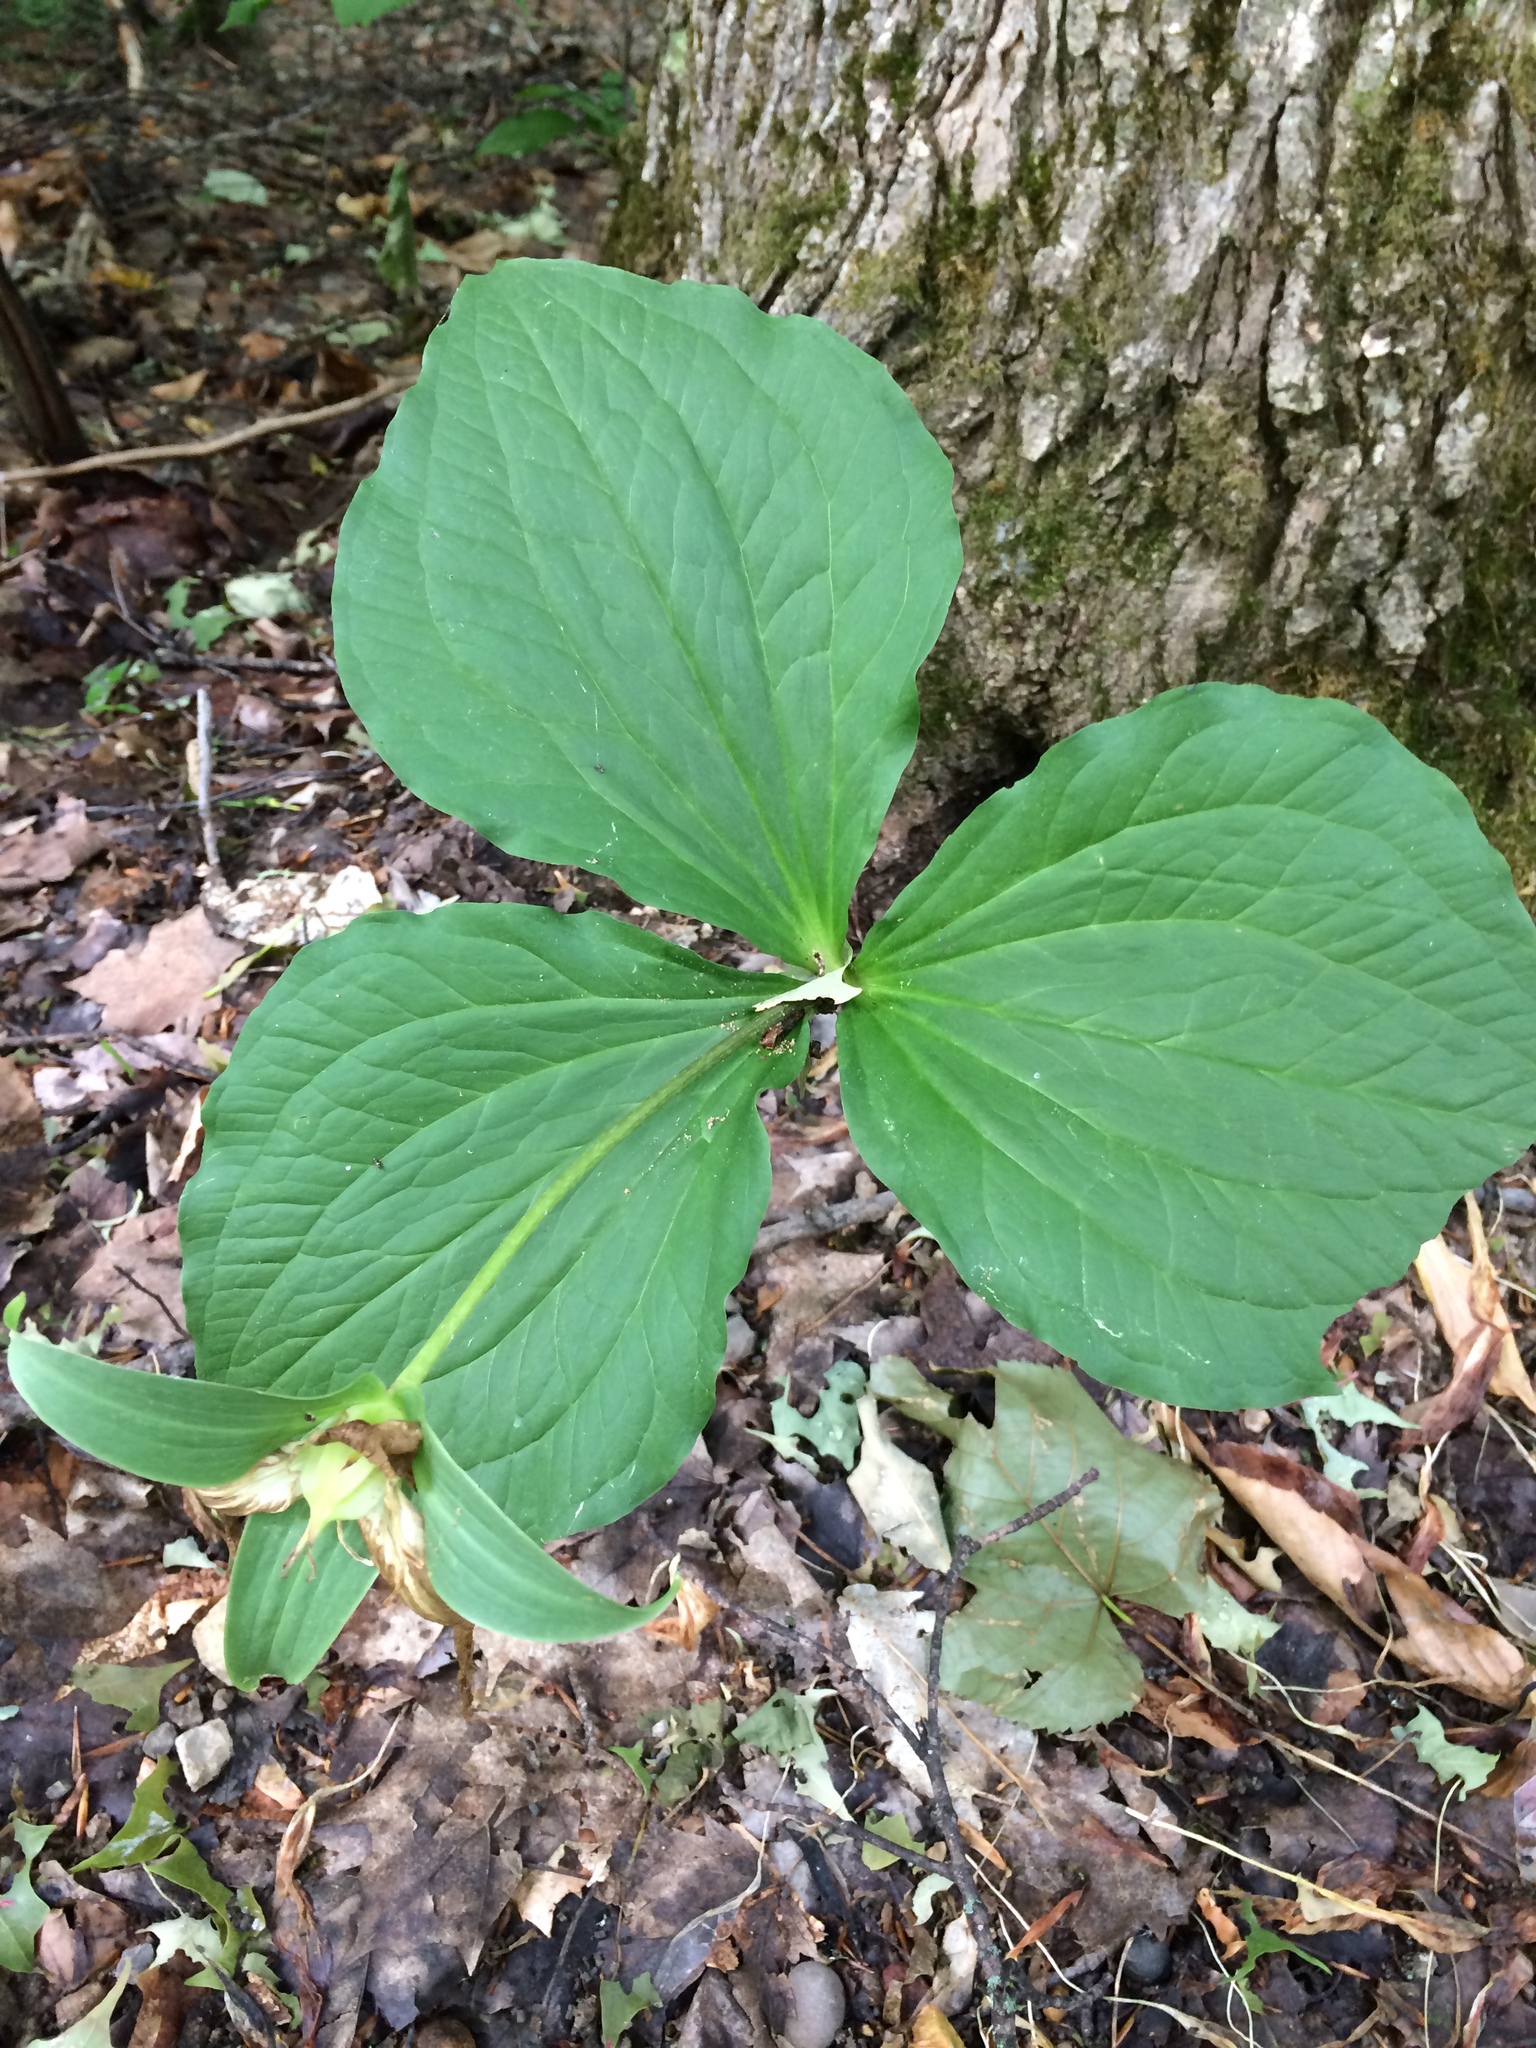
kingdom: Plantae
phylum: Tracheophyta
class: Liliopsida
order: Liliales
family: Melanthiaceae
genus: Trillium
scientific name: Trillium grandiflorum
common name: Great white trillium
